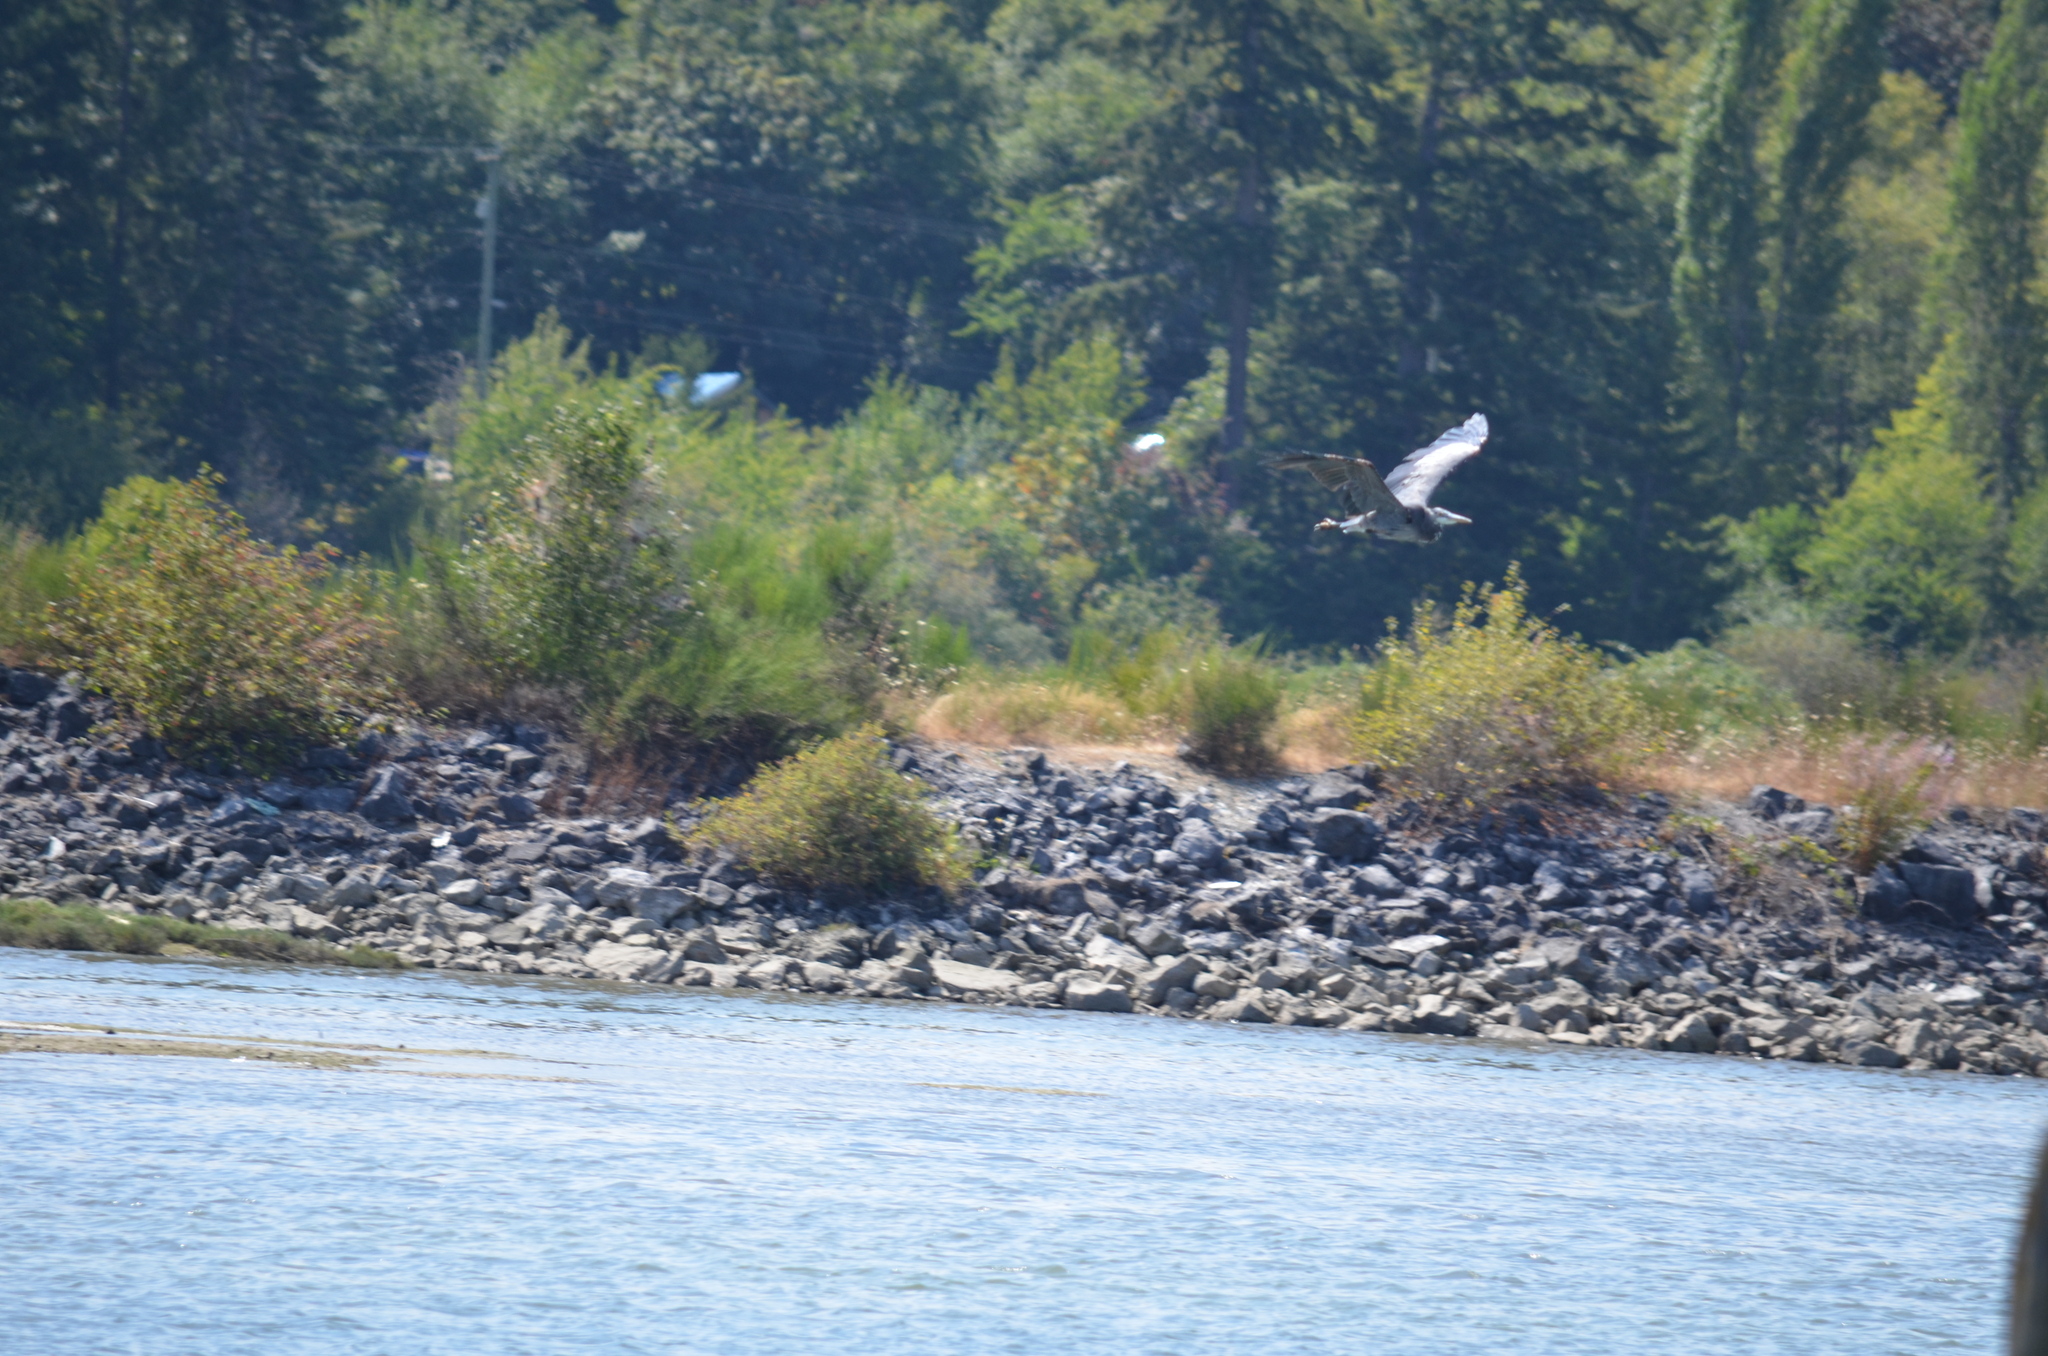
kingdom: Animalia
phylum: Chordata
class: Aves
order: Pelecaniformes
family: Ardeidae
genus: Ardea
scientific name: Ardea herodias
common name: Great blue heron
